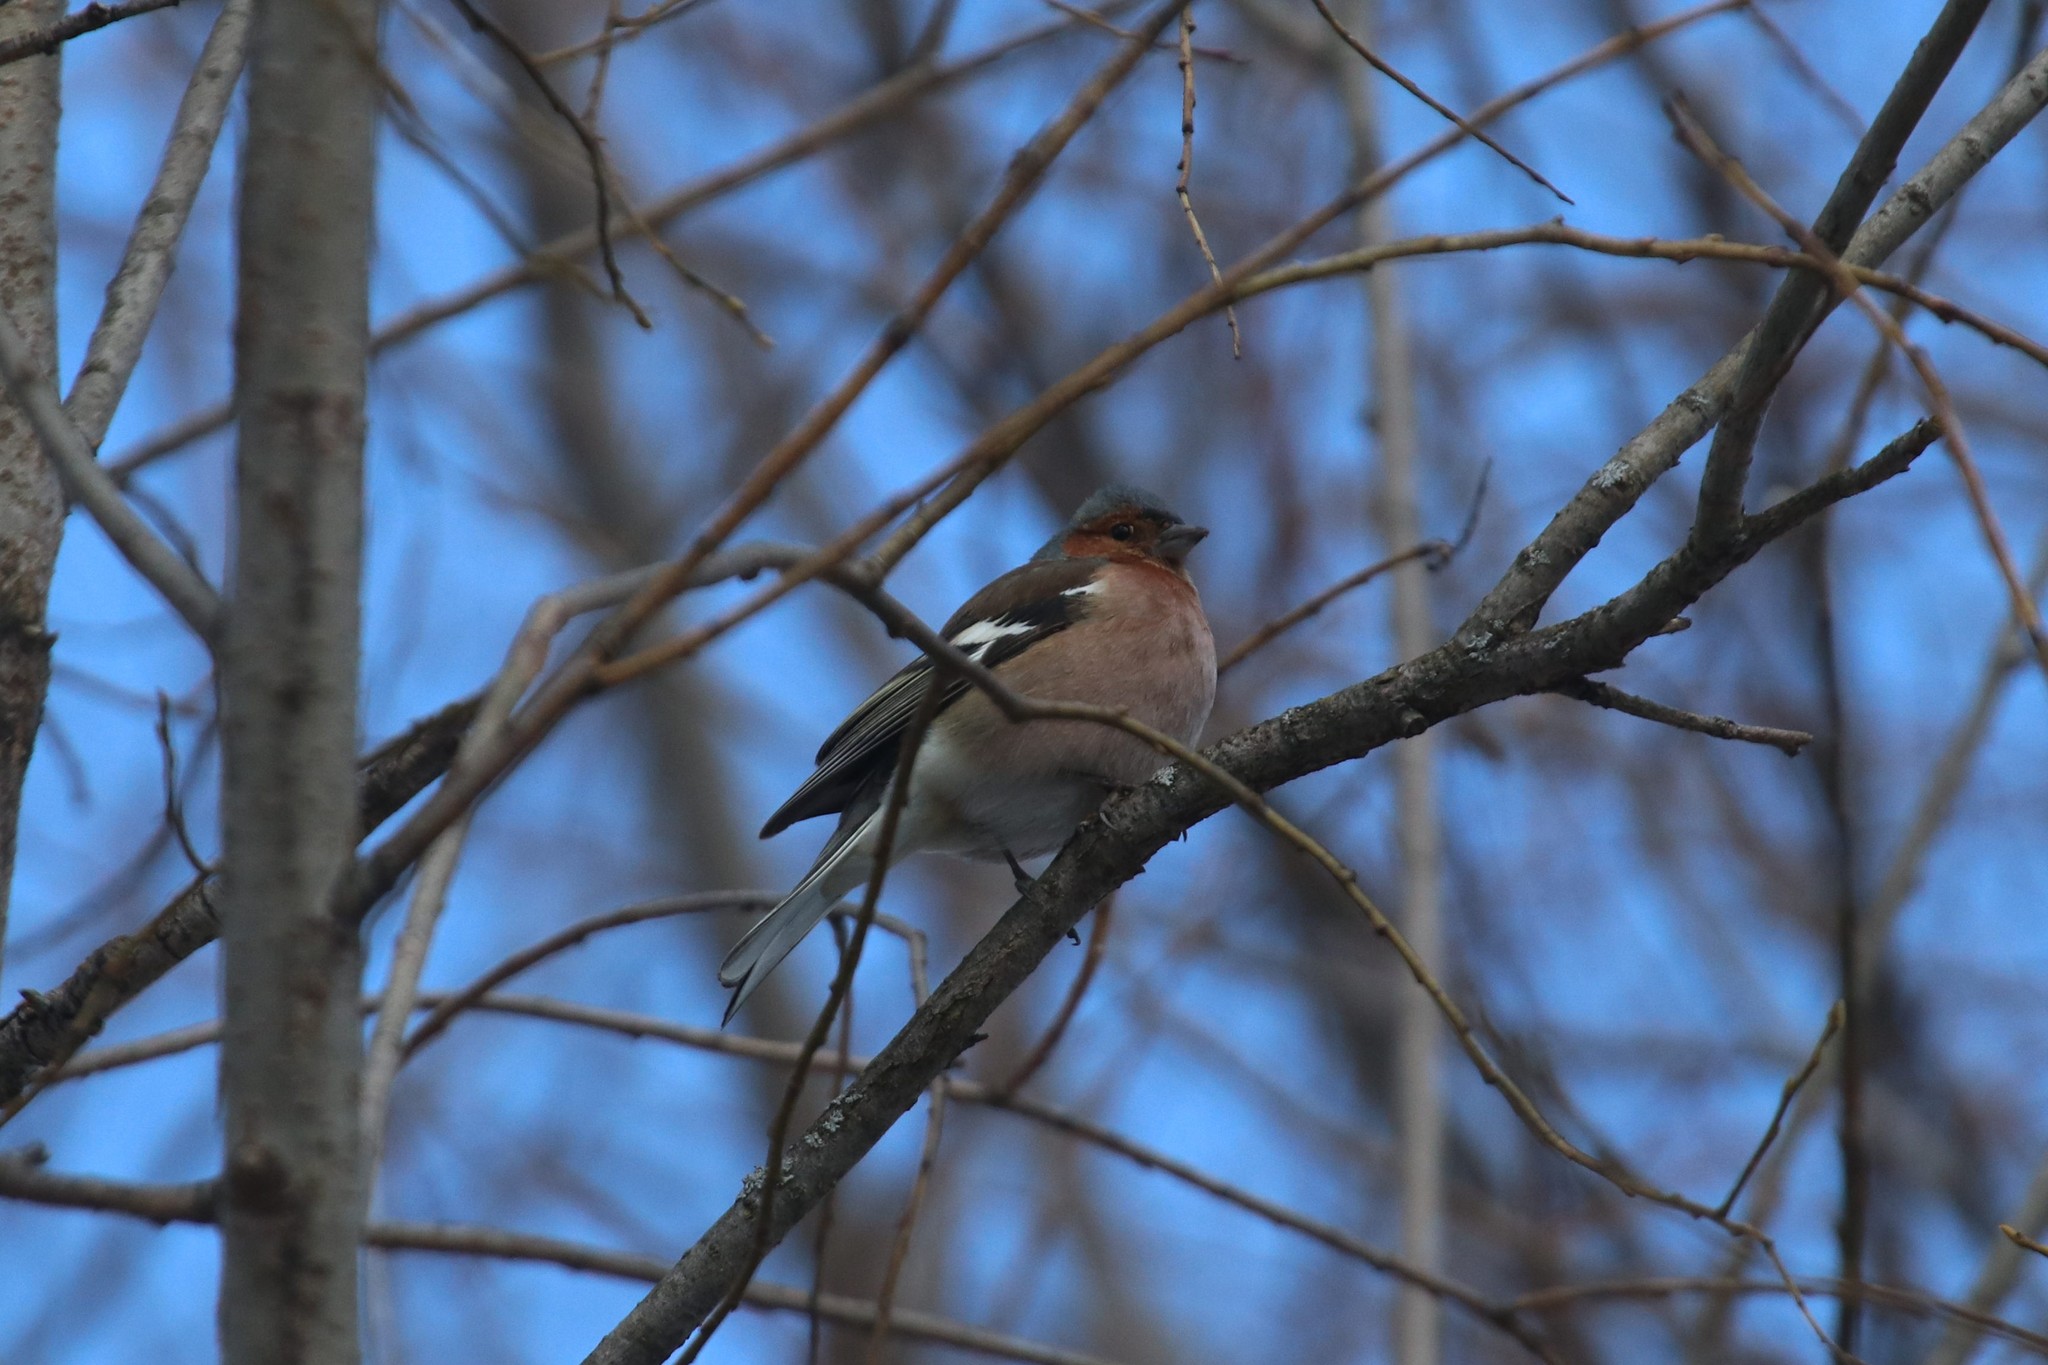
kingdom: Animalia
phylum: Chordata
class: Aves
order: Passeriformes
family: Fringillidae
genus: Fringilla
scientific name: Fringilla coelebs
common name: Common chaffinch
